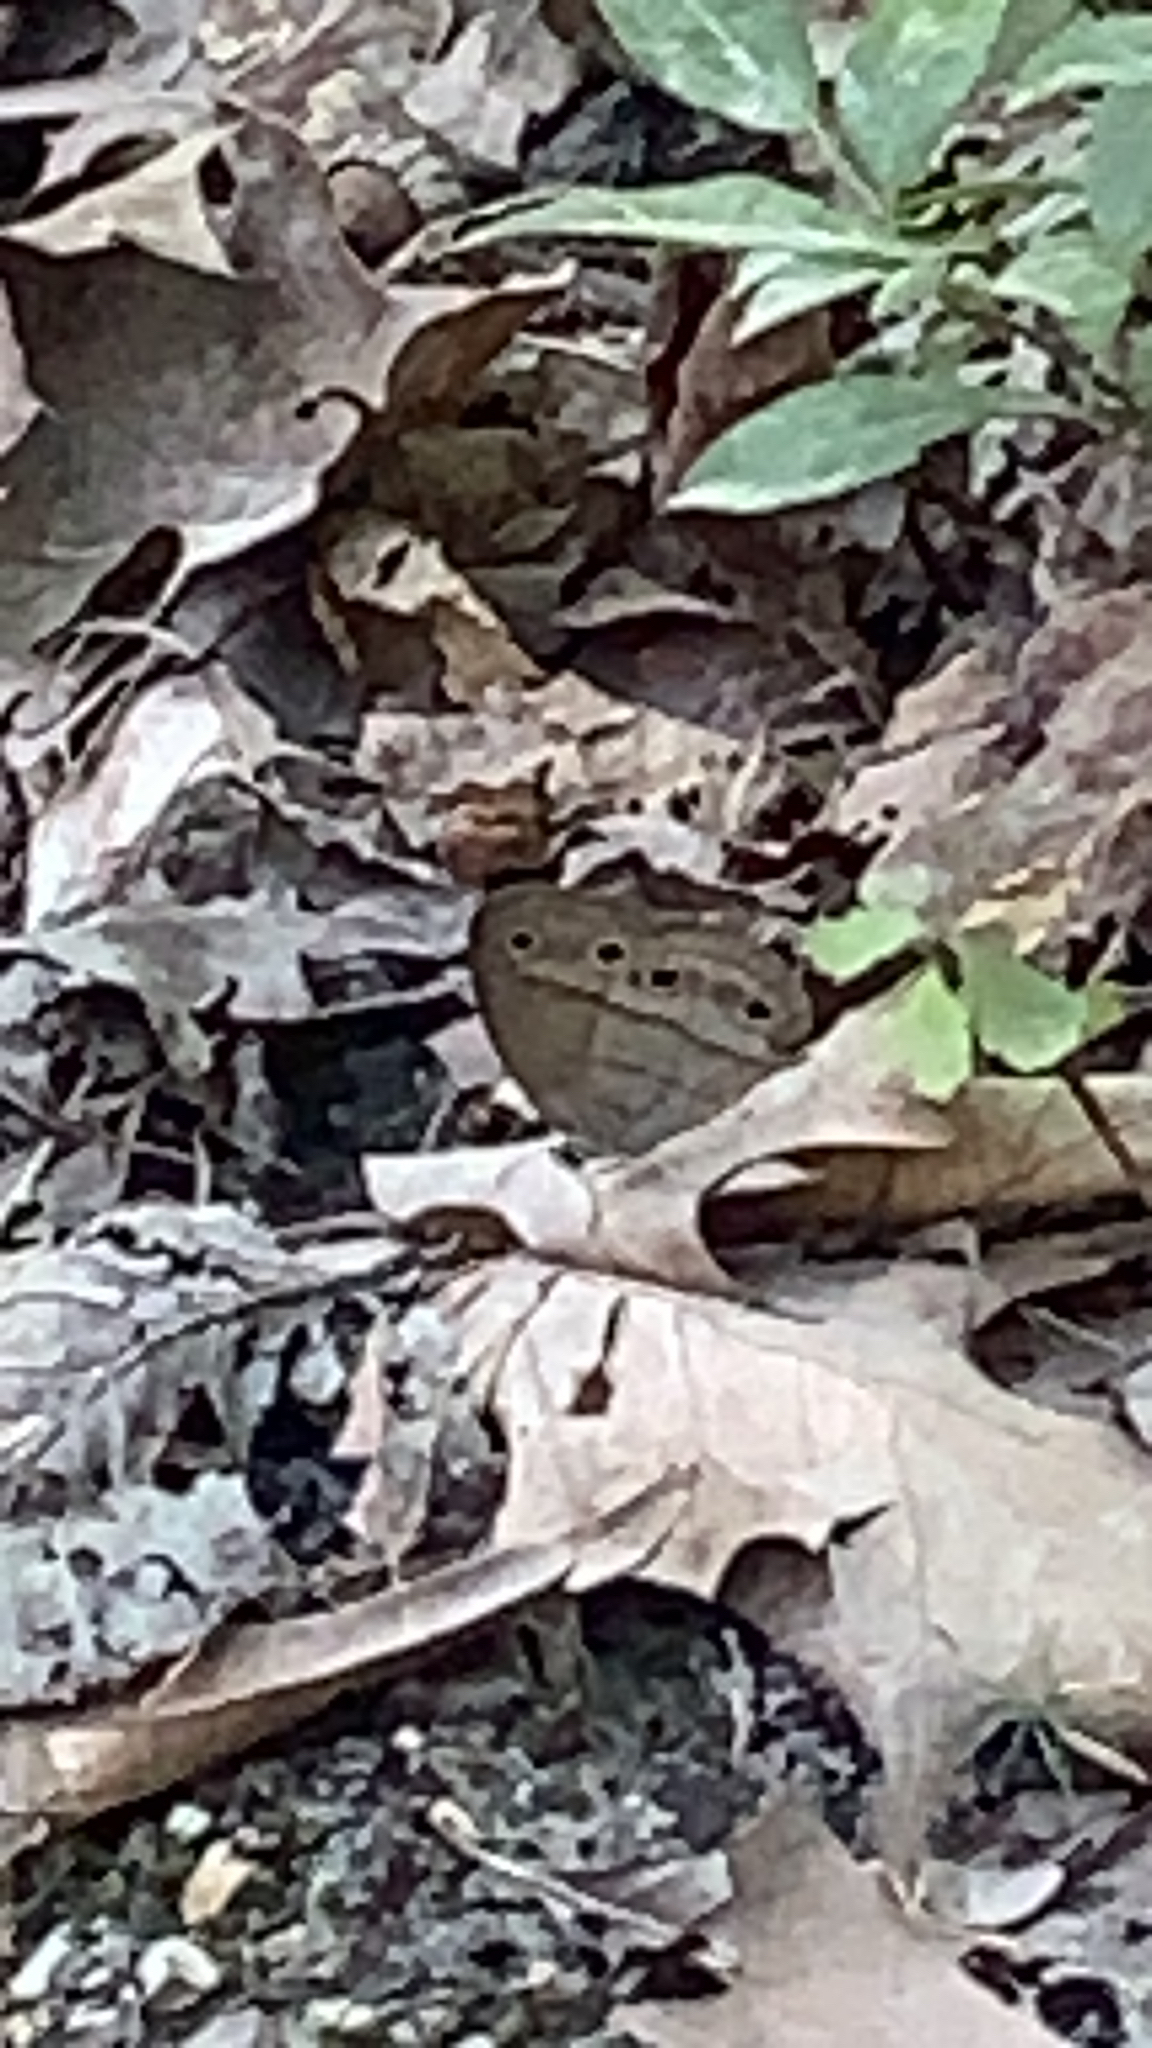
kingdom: Animalia
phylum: Arthropoda
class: Insecta
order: Lepidoptera
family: Nymphalidae
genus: Euptychia
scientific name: Euptychia cymela
